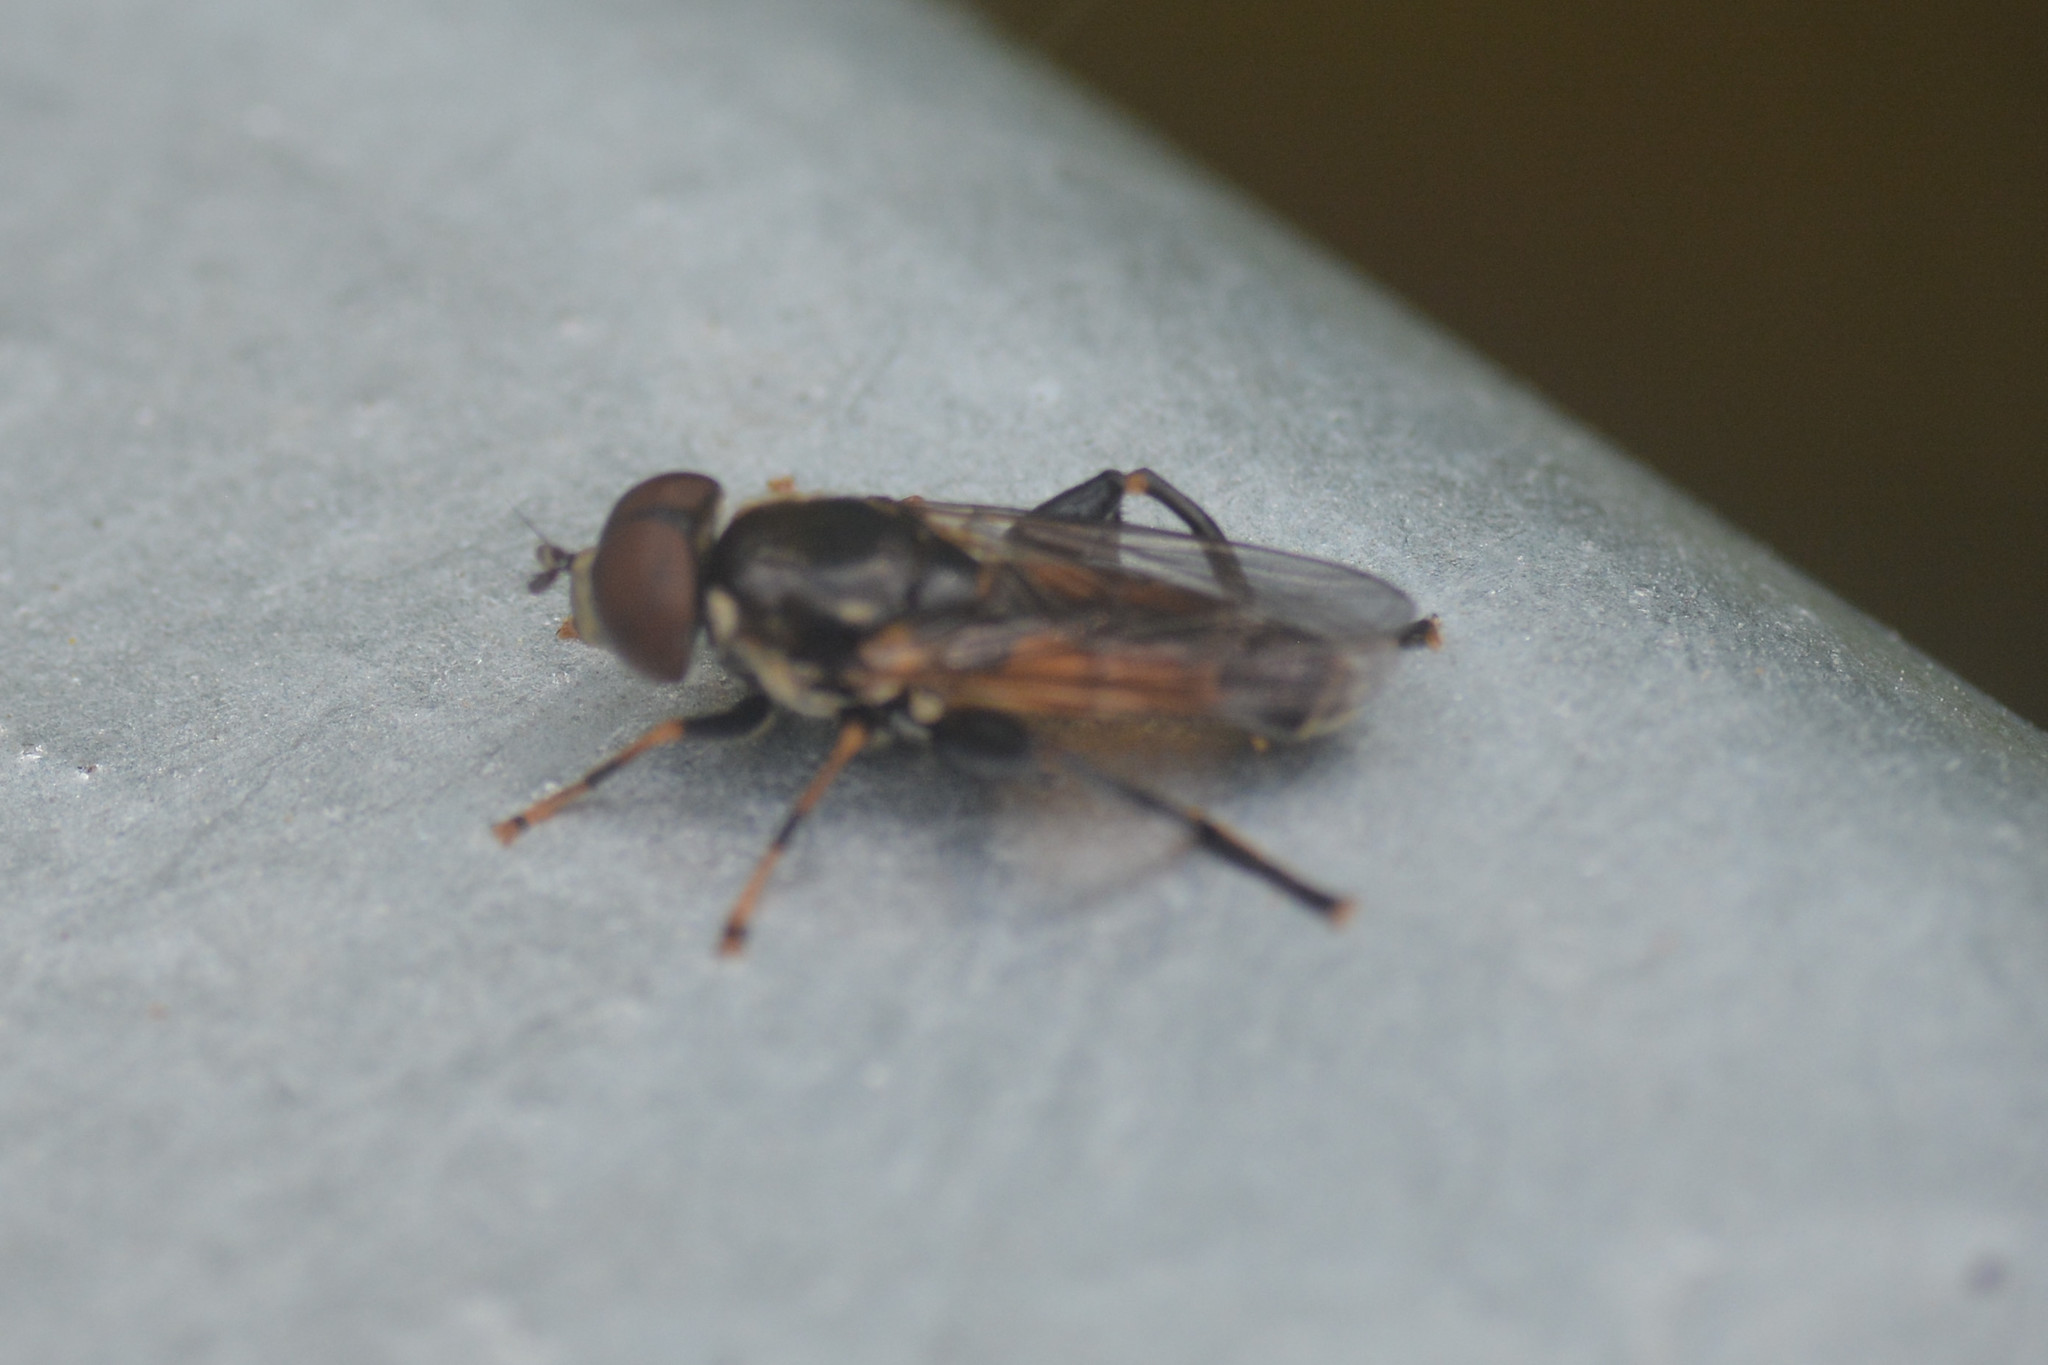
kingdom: Animalia
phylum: Arthropoda
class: Insecta
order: Diptera
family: Syrphidae
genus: Tropidia
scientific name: Tropidia scita
